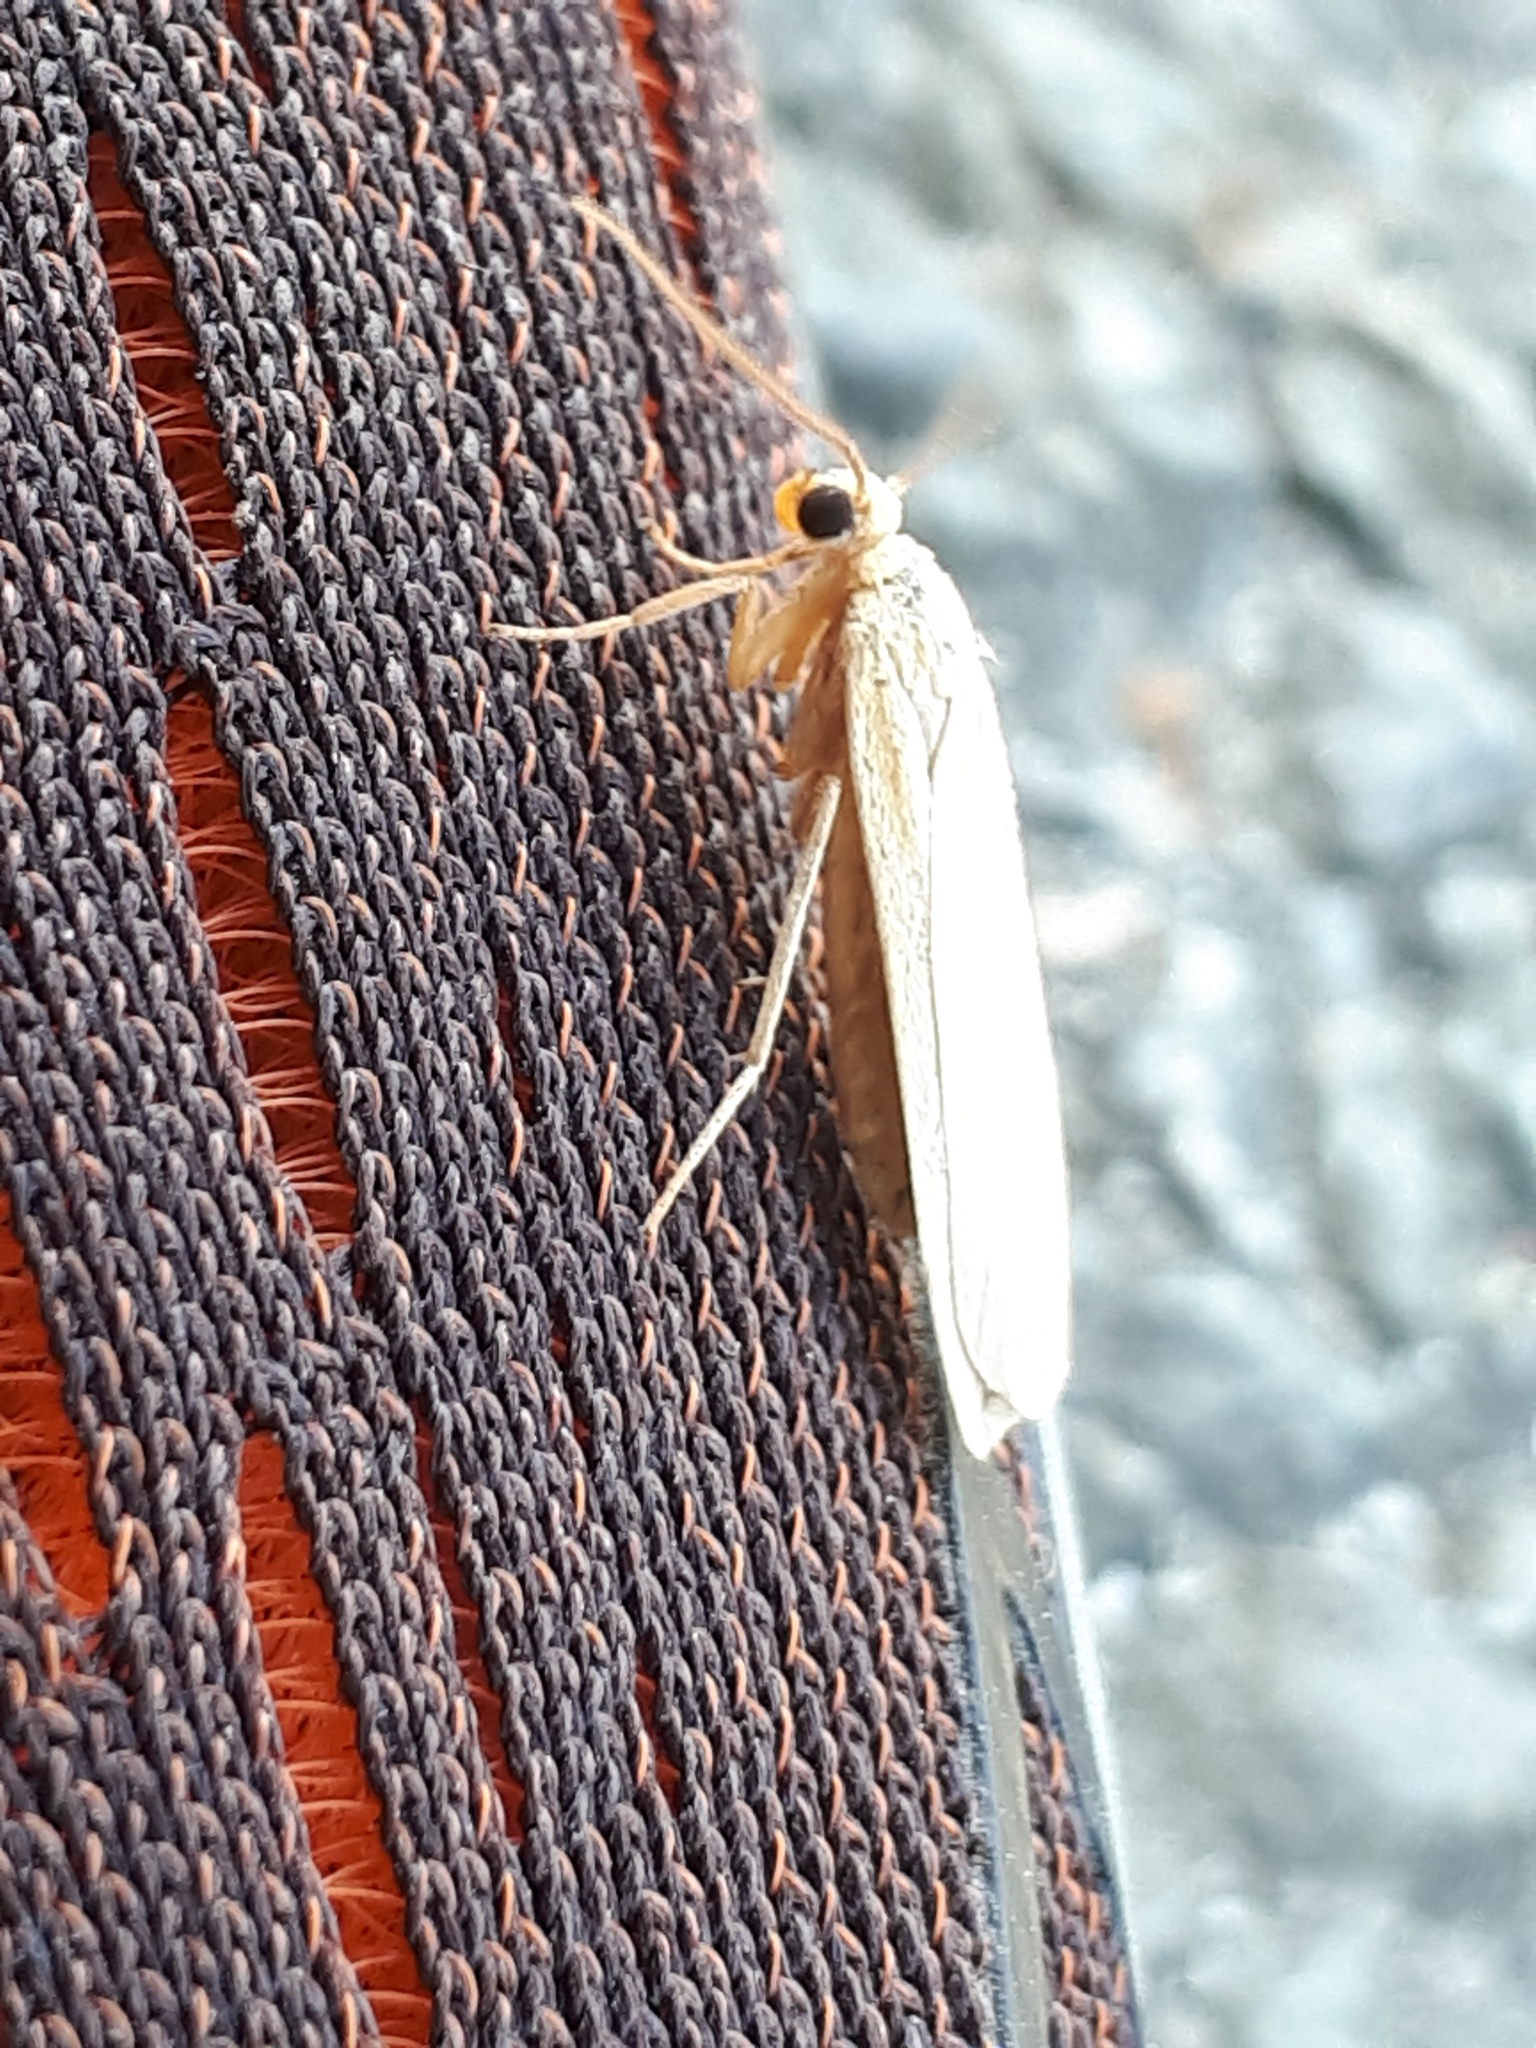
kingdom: Animalia
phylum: Arthropoda
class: Insecta
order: Lepidoptera
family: Erebidae
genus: Katha
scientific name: Katha depressa
